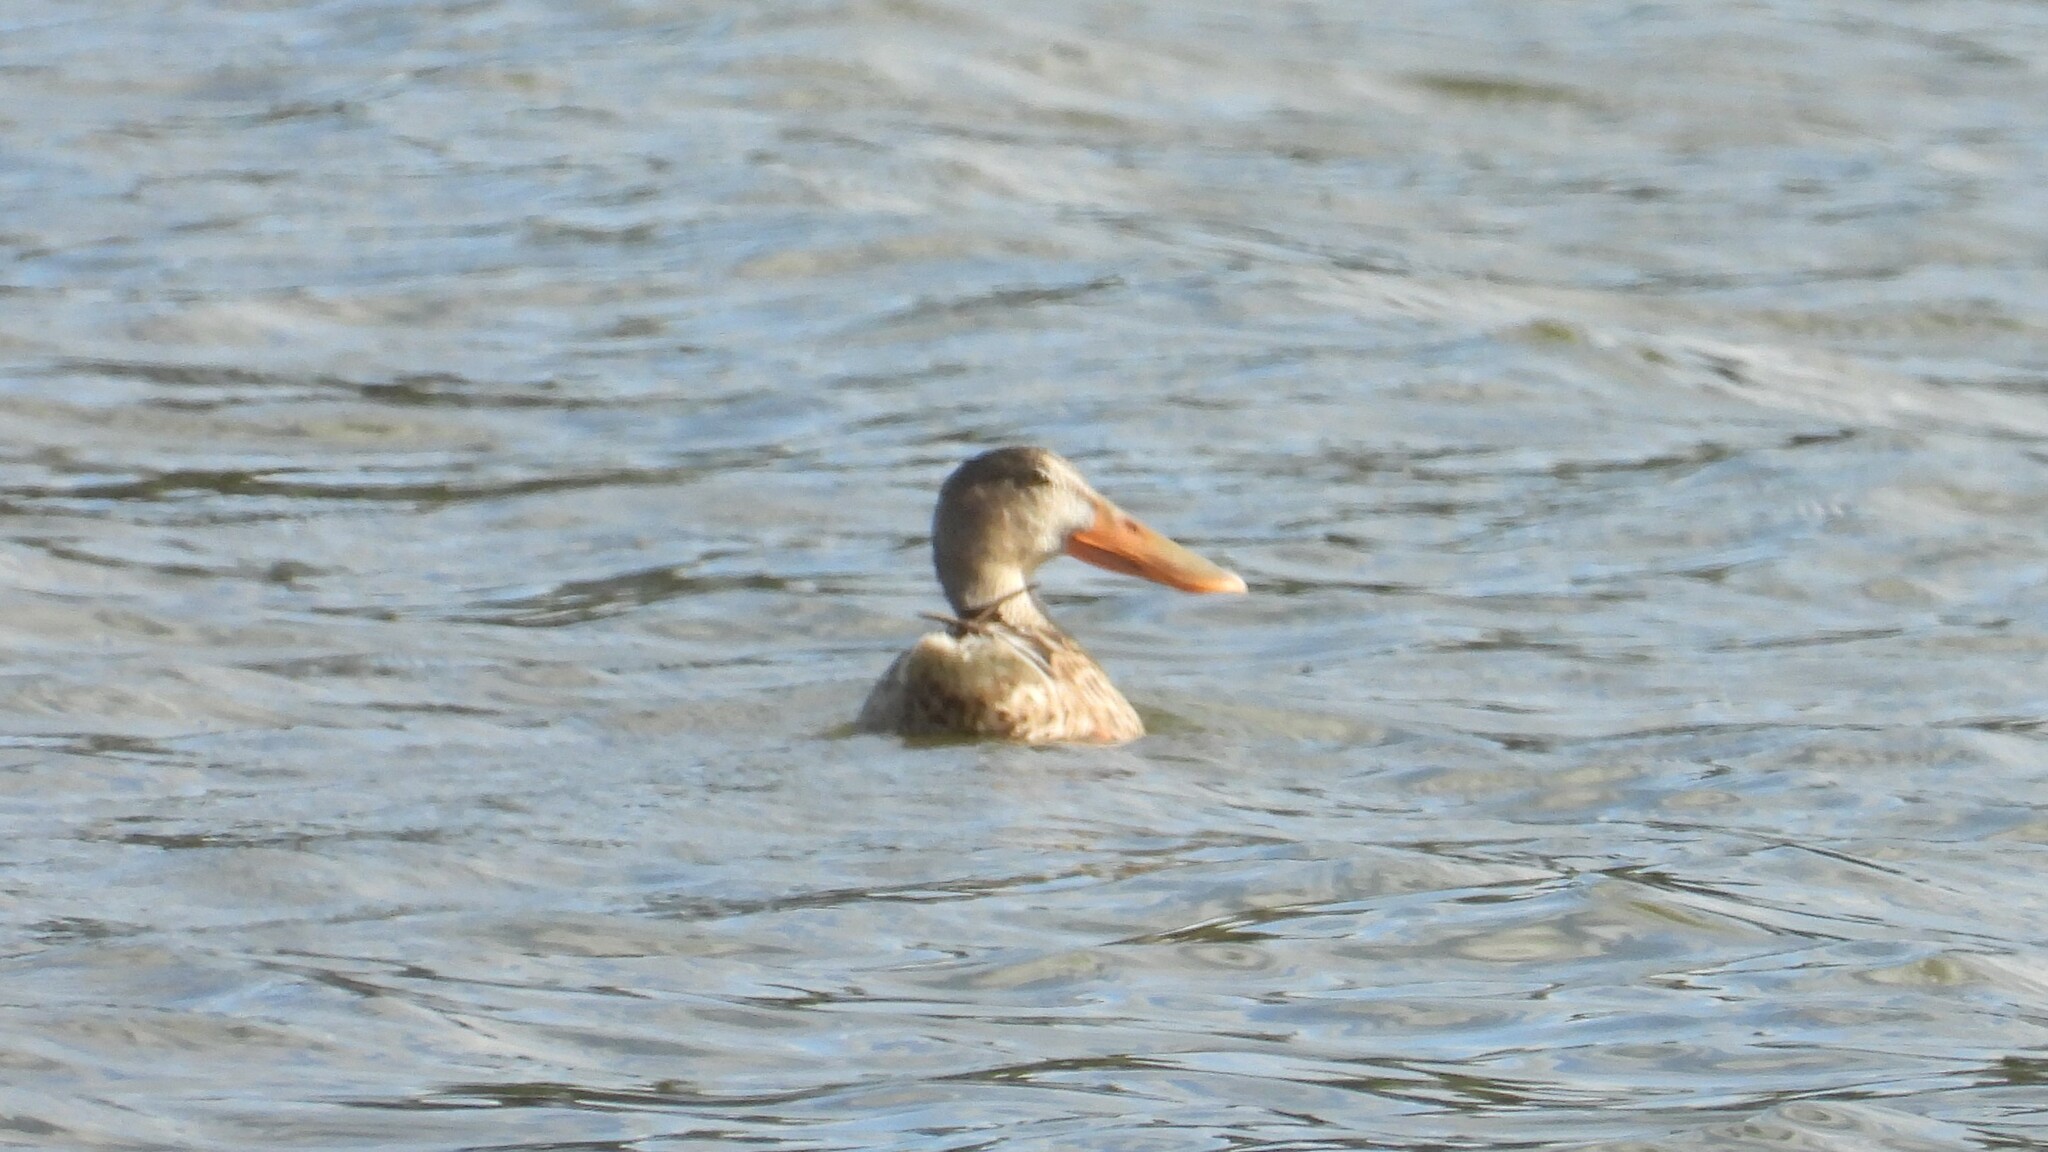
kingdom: Animalia
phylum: Chordata
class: Aves
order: Anseriformes
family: Anatidae
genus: Spatula
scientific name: Spatula clypeata
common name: Northern shoveler
